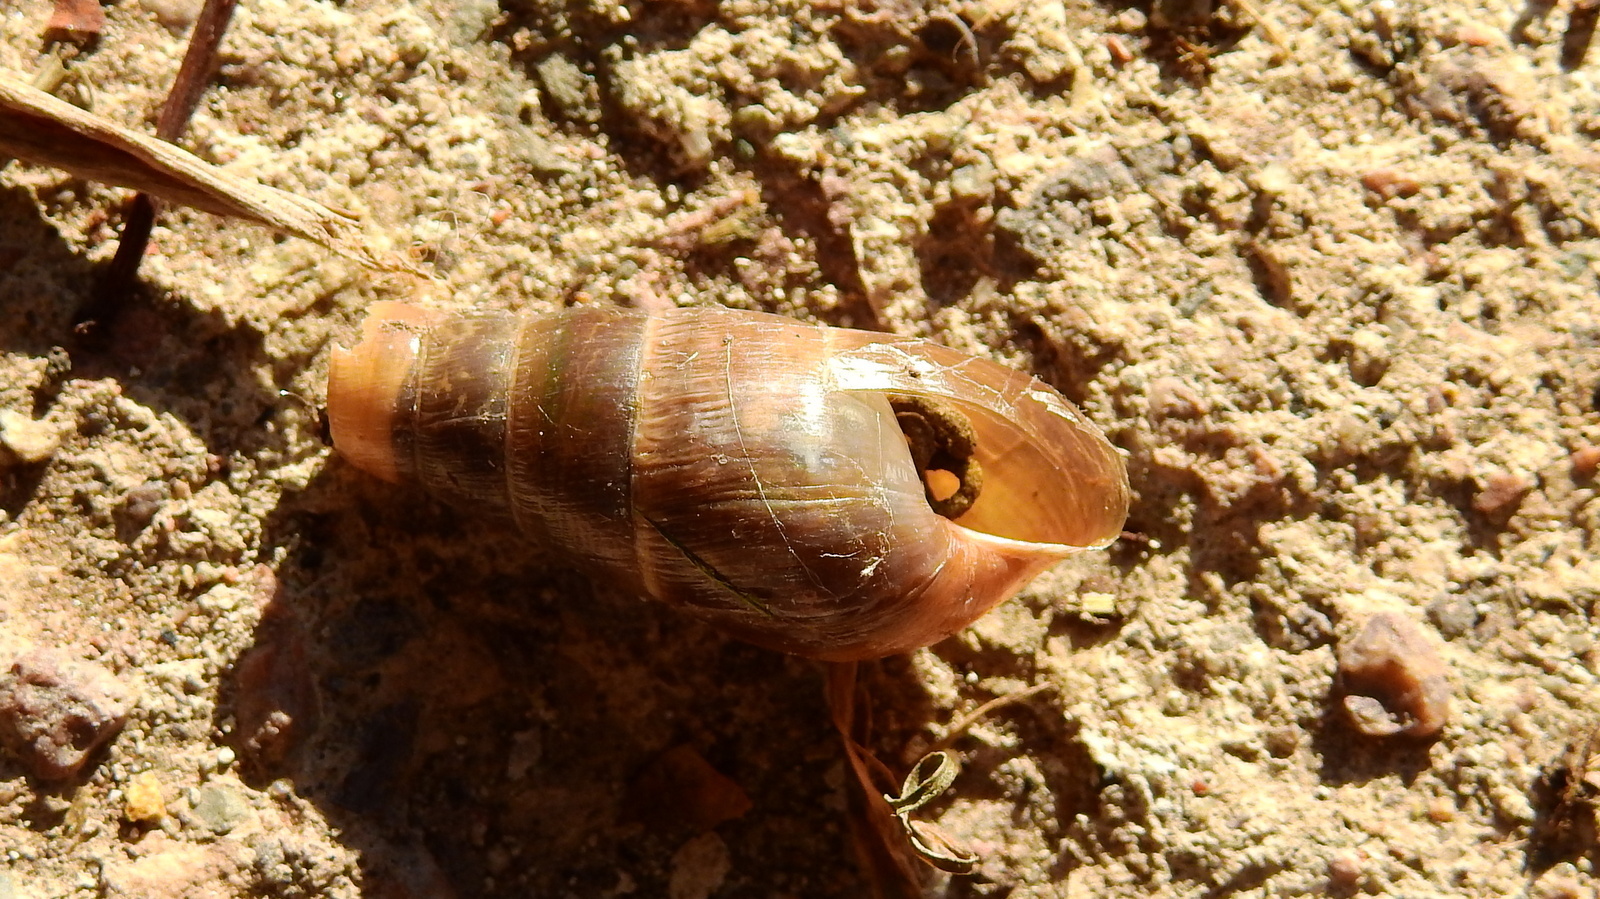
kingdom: Animalia
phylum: Mollusca
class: Gastropoda
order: Stylommatophora
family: Achatinidae
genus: Rumina
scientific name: Rumina decollata
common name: Decollate snail
